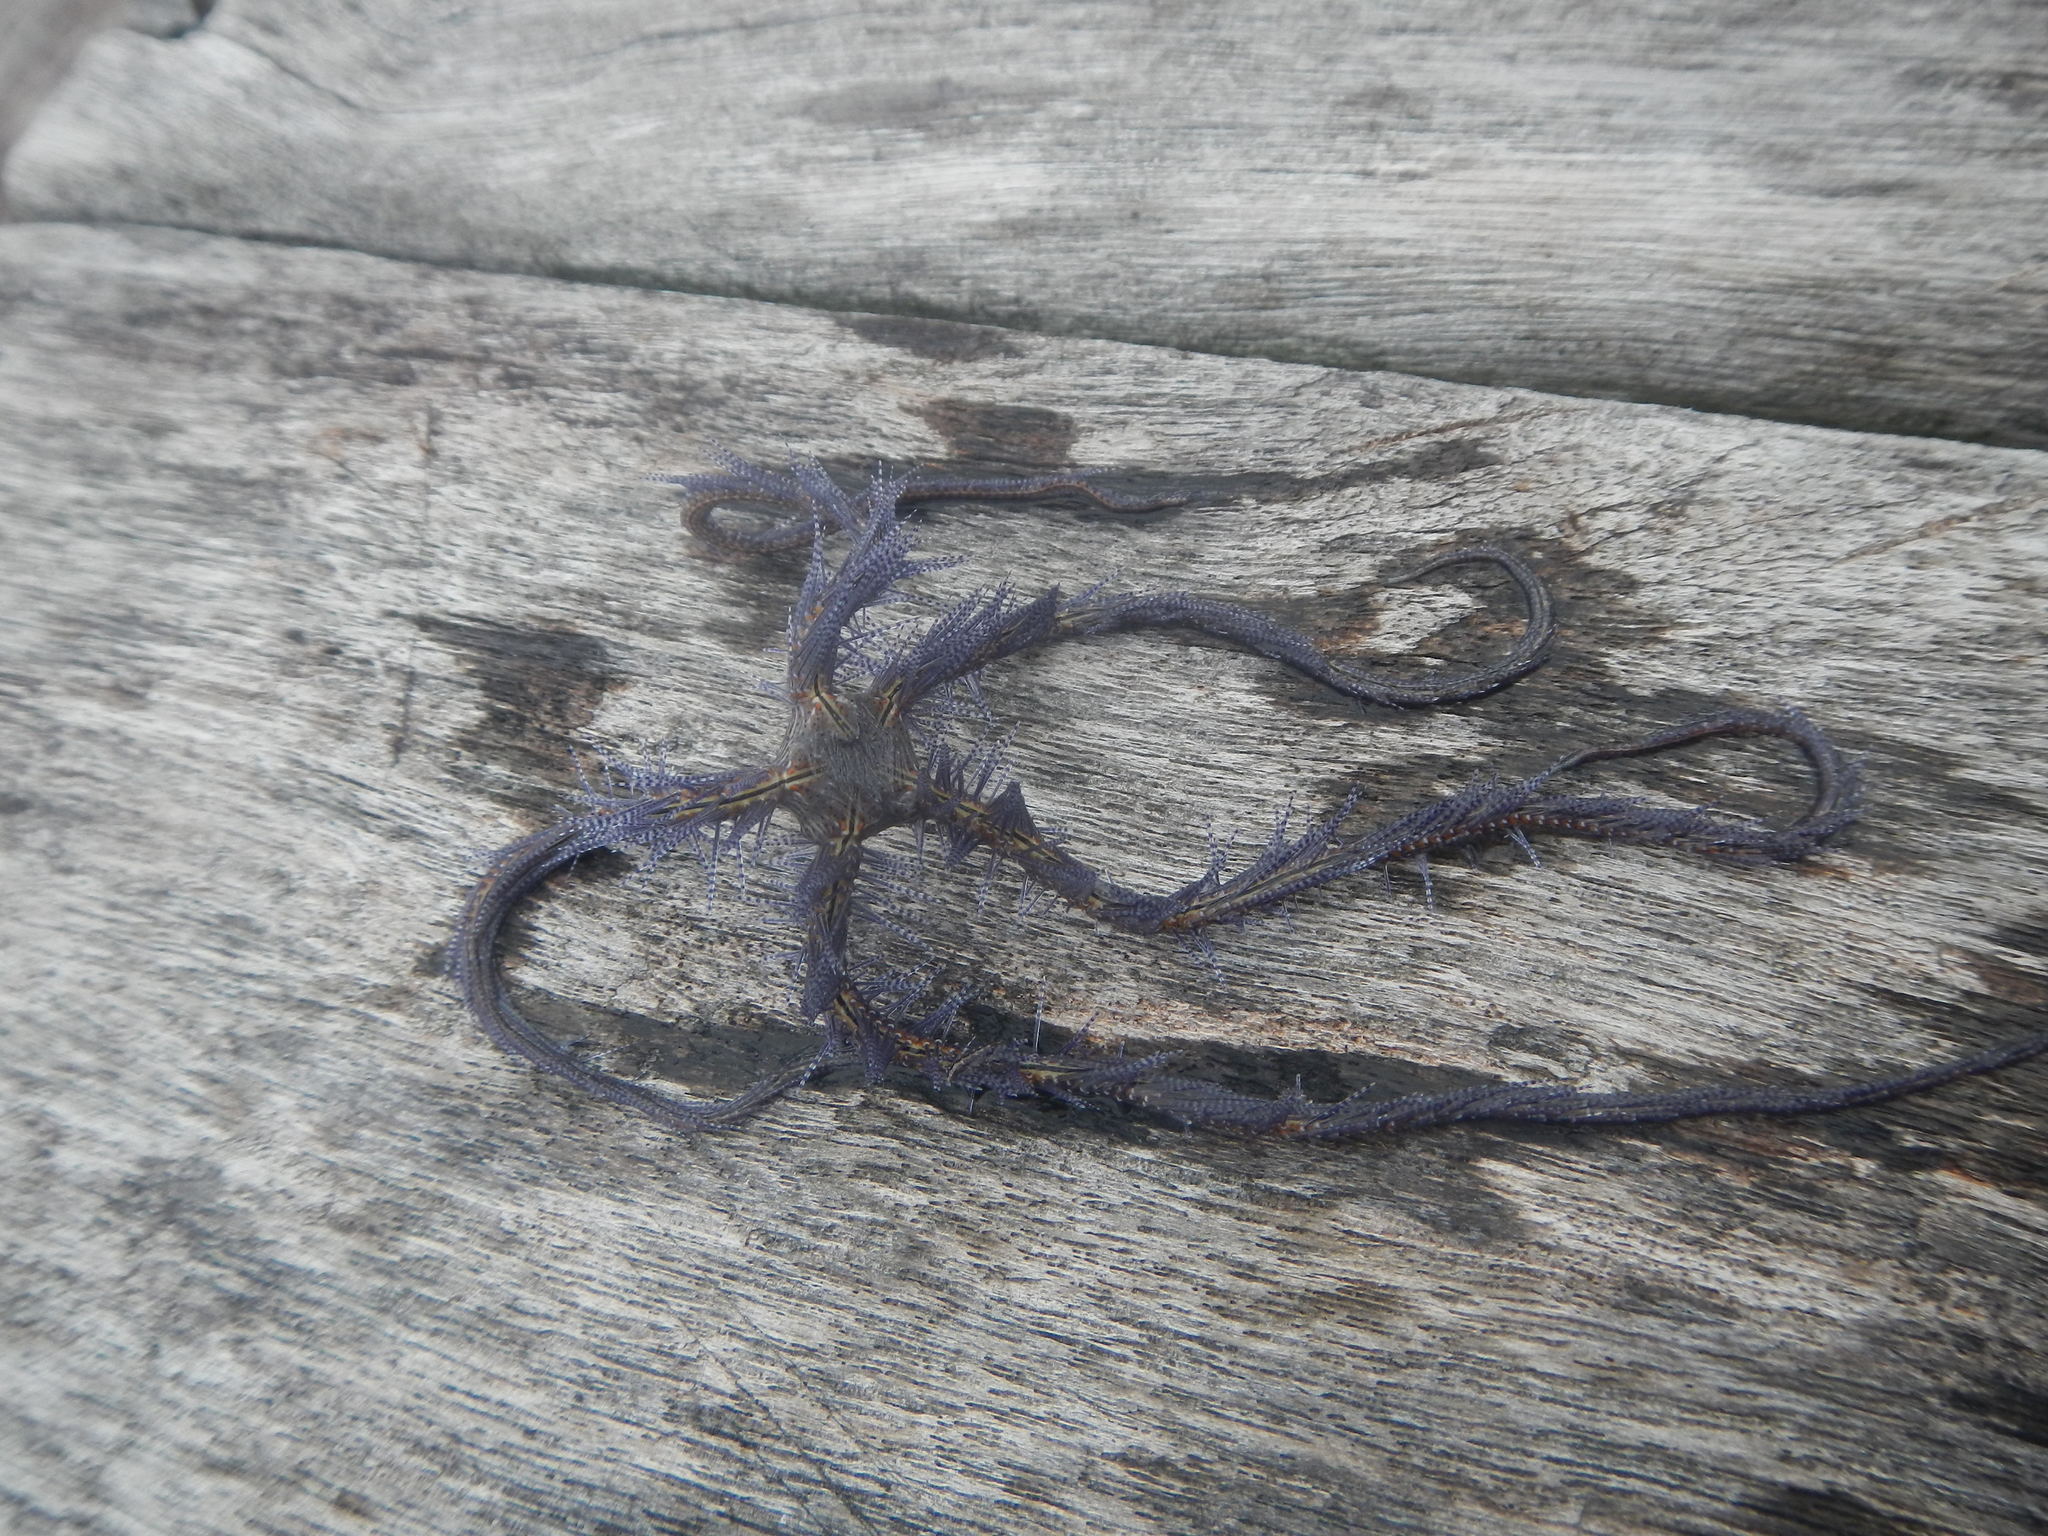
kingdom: Animalia
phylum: Echinodermata
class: Ophiuroidea
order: Amphilepidida
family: Ophiotrichidae
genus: Ophiothrix
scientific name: Ophiothrix suensonii
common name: Sponge brittle star
